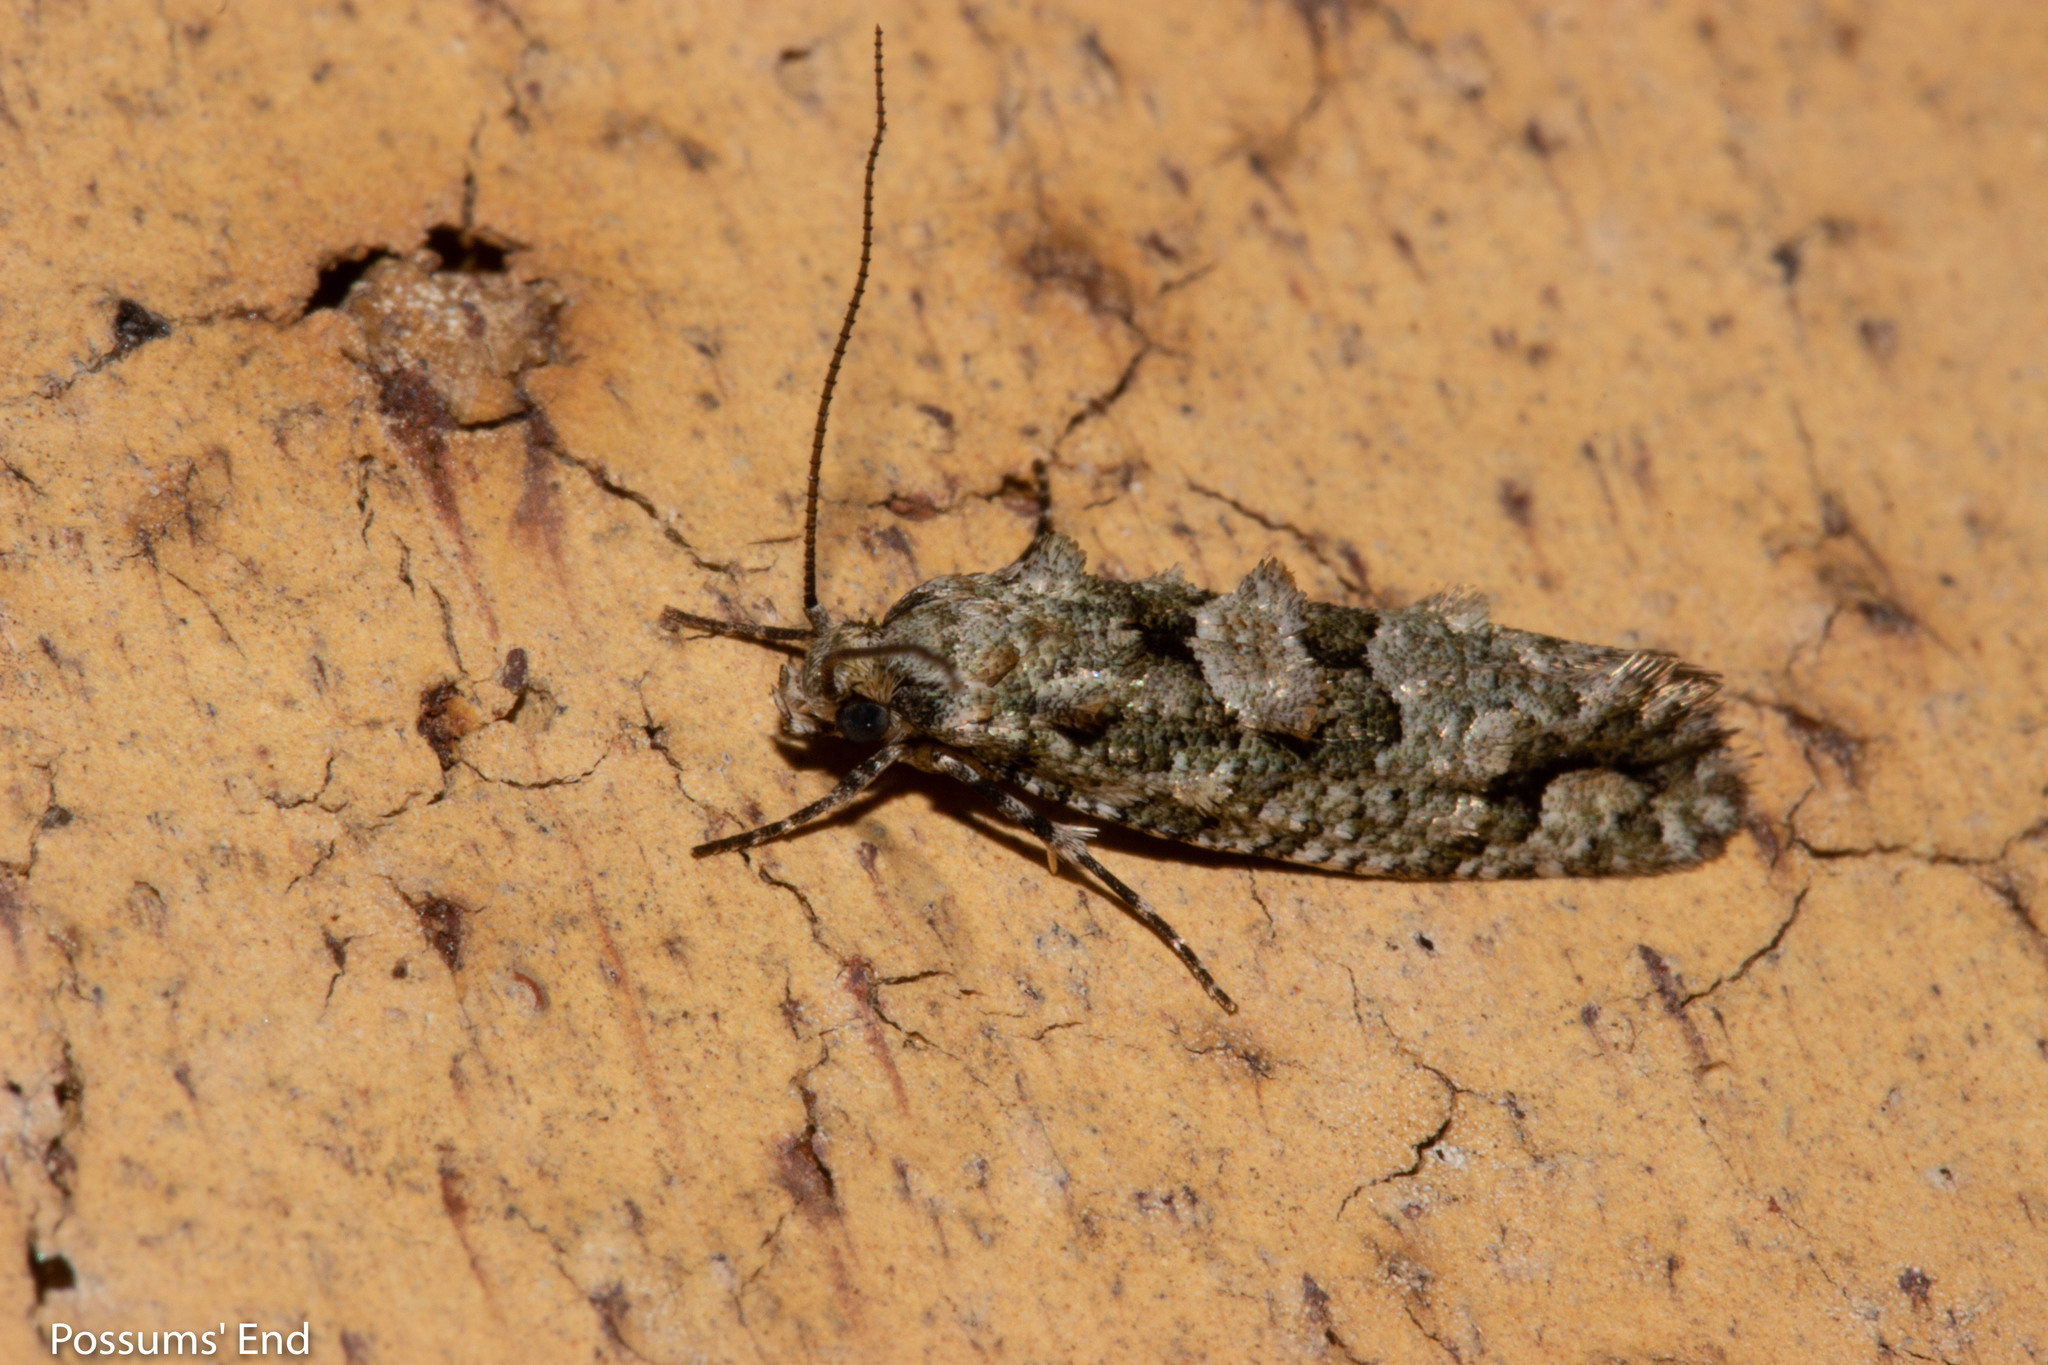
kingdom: Animalia
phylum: Arthropoda
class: Insecta
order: Lepidoptera
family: Tineidae
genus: Lysiphragma
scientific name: Lysiphragma howesii
